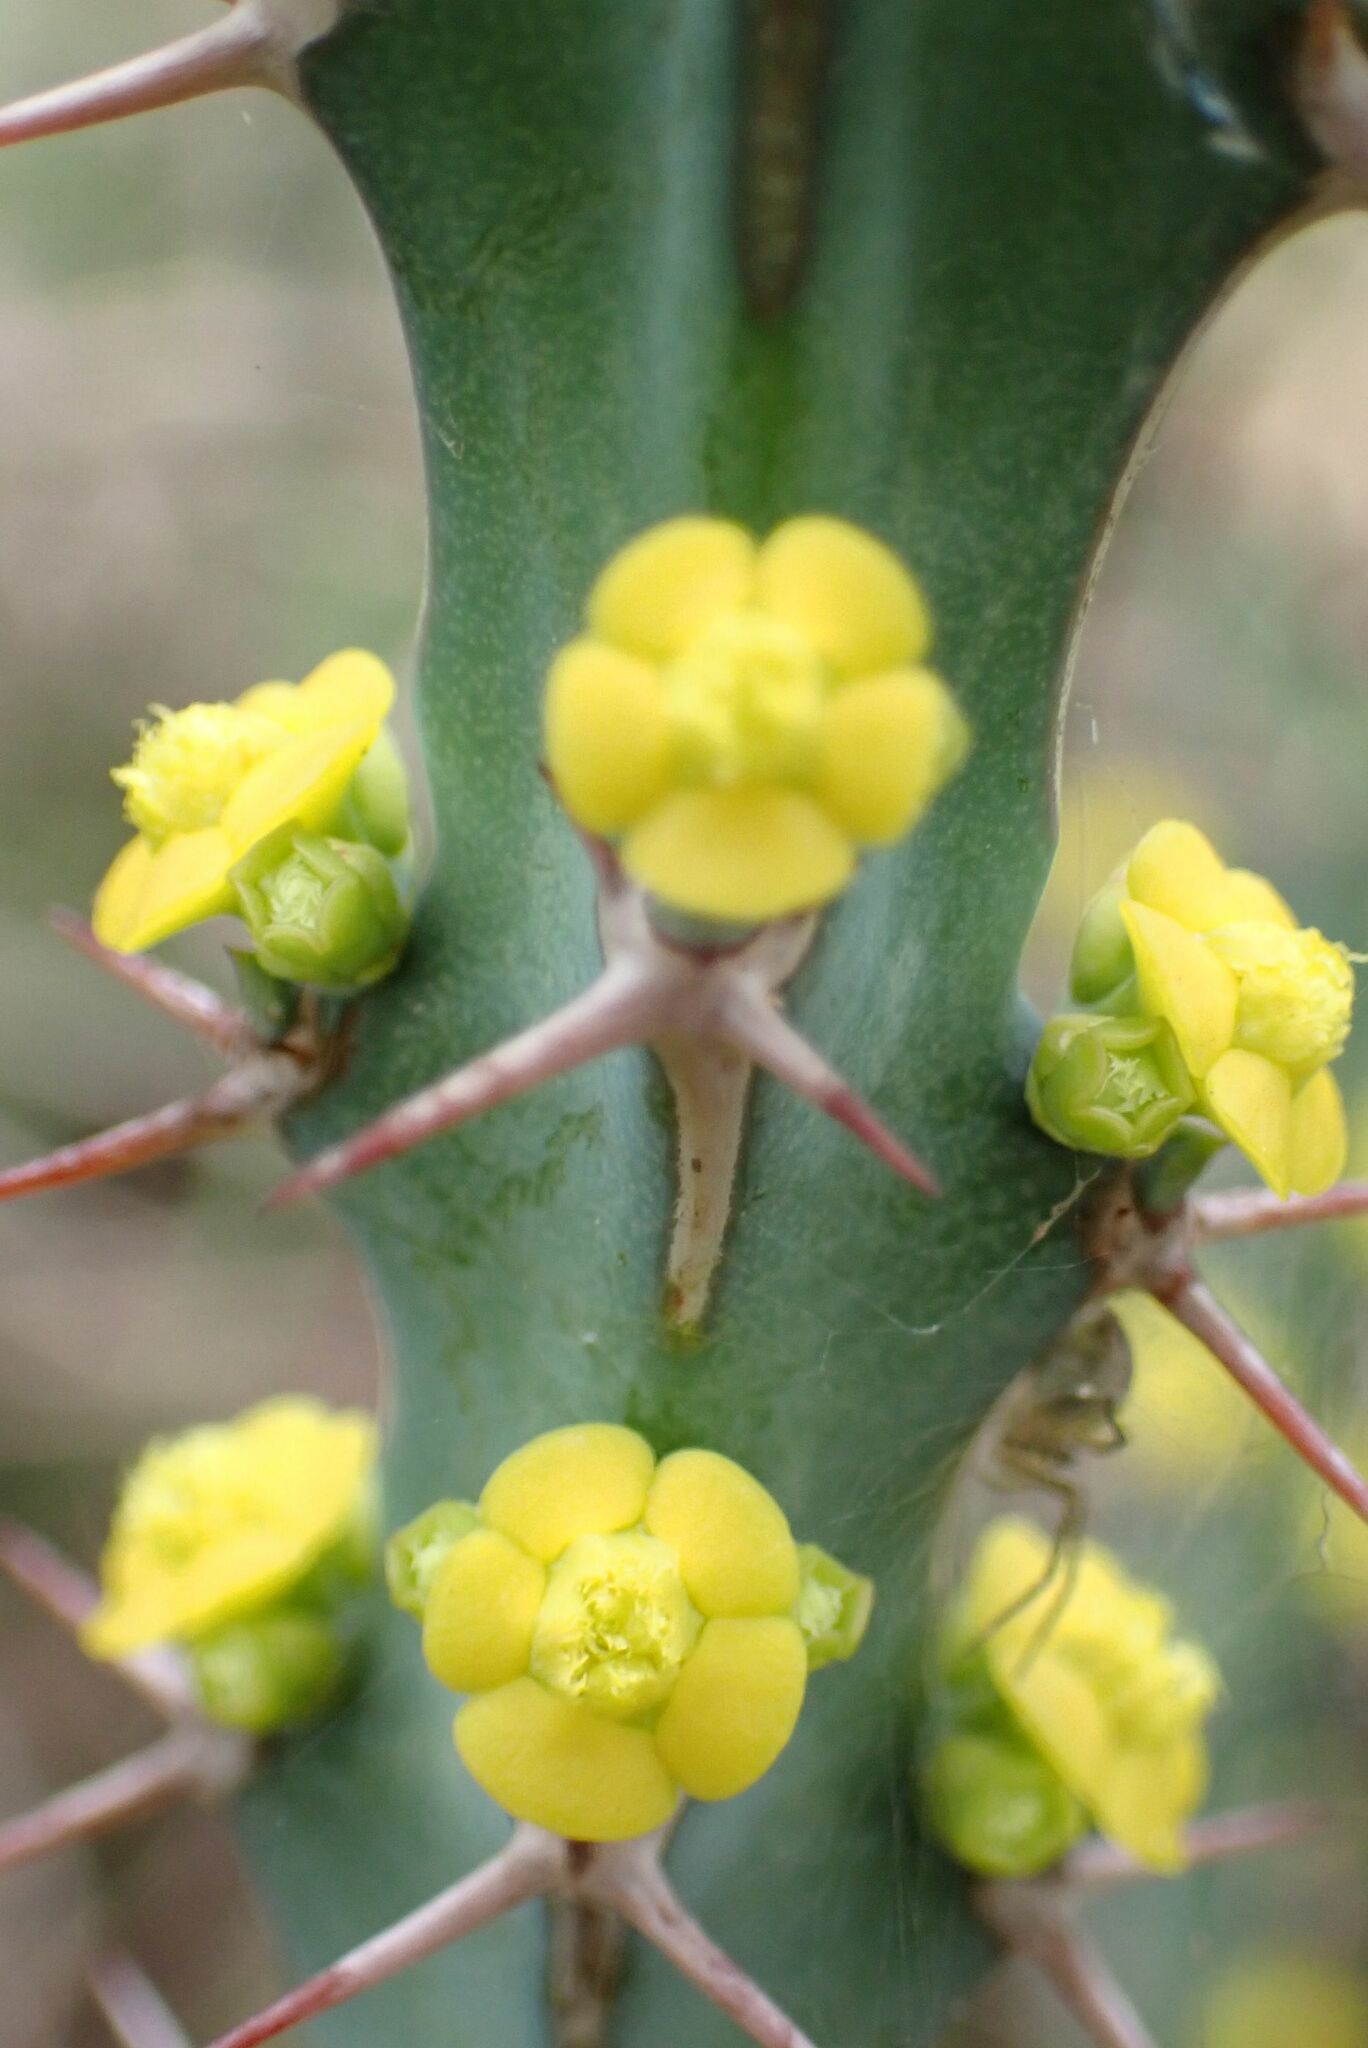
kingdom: Plantae
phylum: Tracheophyta
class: Magnoliopsida
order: Malpighiales
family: Euphorbiaceae
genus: Euphorbia
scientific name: Euphorbia schinzii
